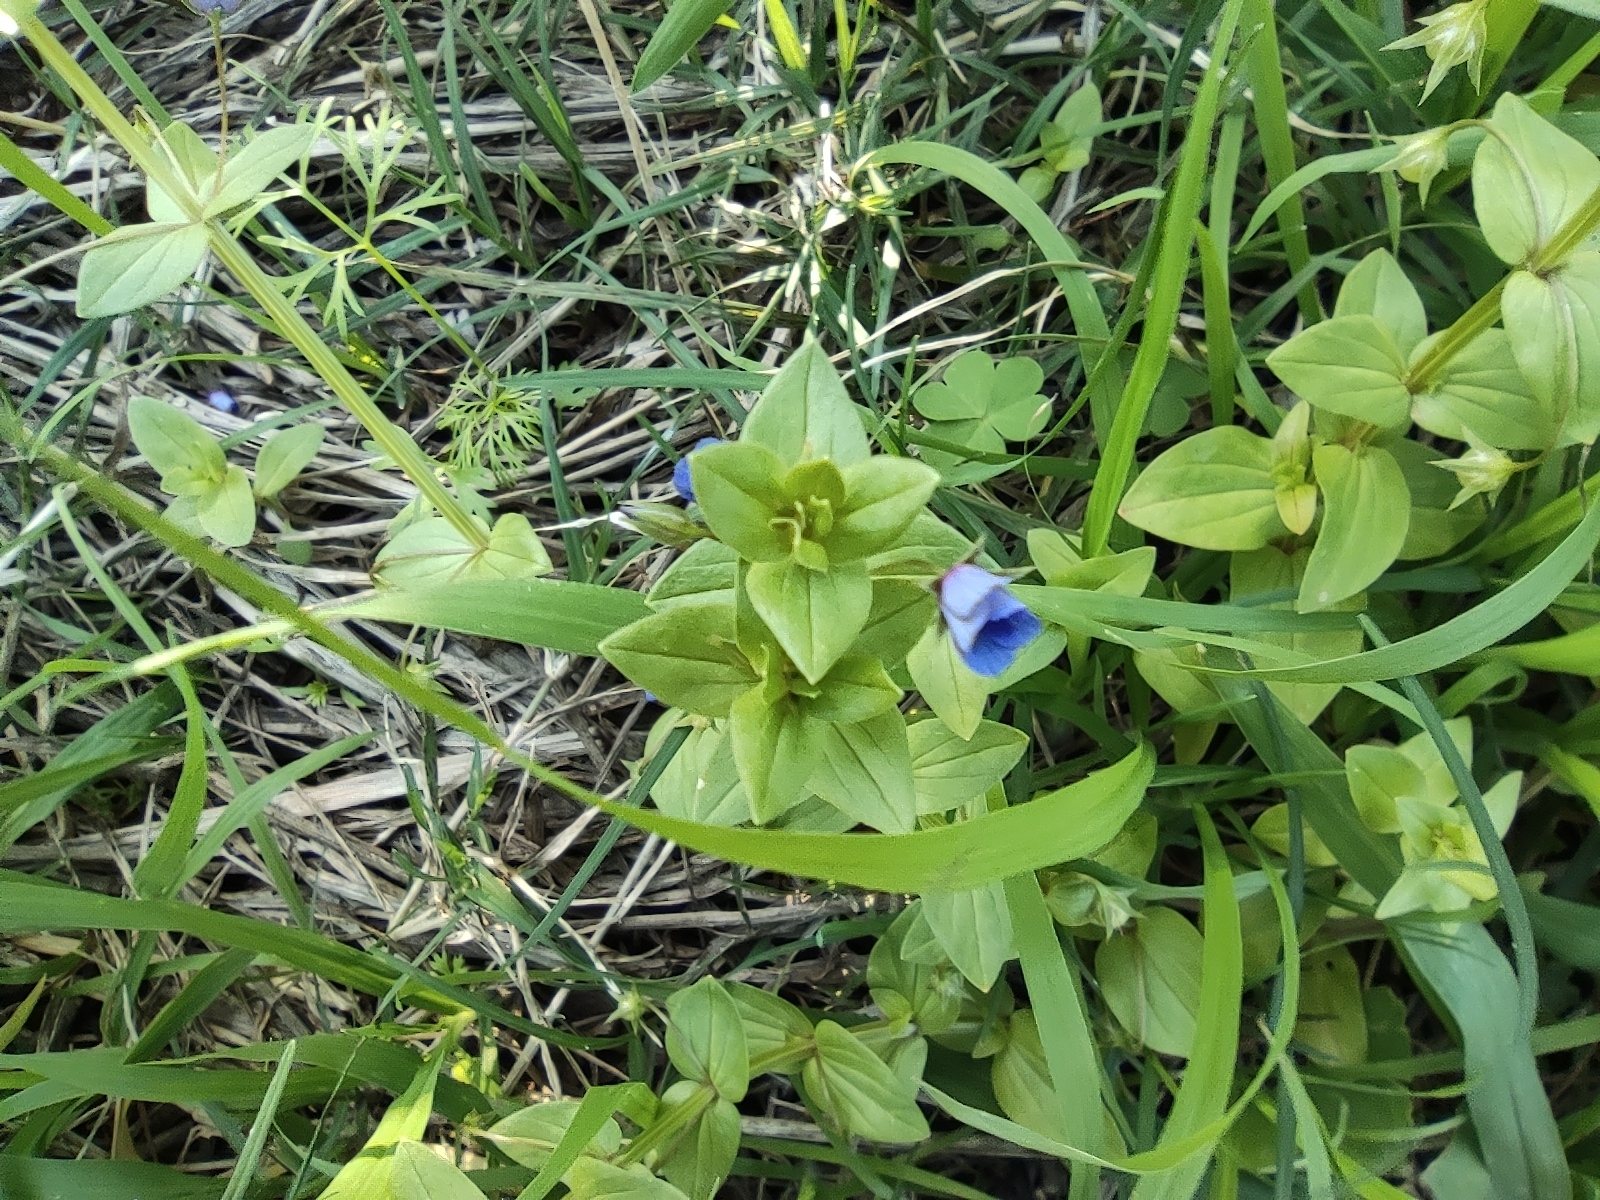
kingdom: Plantae
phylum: Tracheophyta
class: Magnoliopsida
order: Ericales
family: Primulaceae
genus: Lysimachia
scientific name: Lysimachia loeflingii
